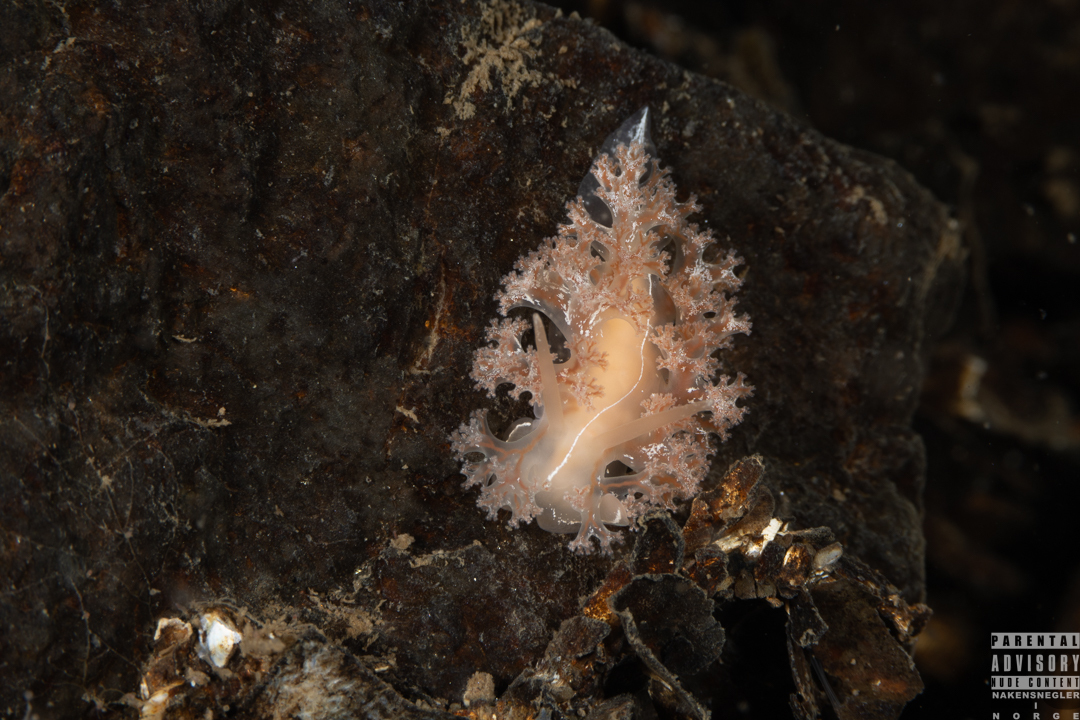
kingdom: Animalia
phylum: Mollusca
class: Gastropoda
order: Nudibranchia
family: Heroidae
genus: Hero
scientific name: Hero formosa
